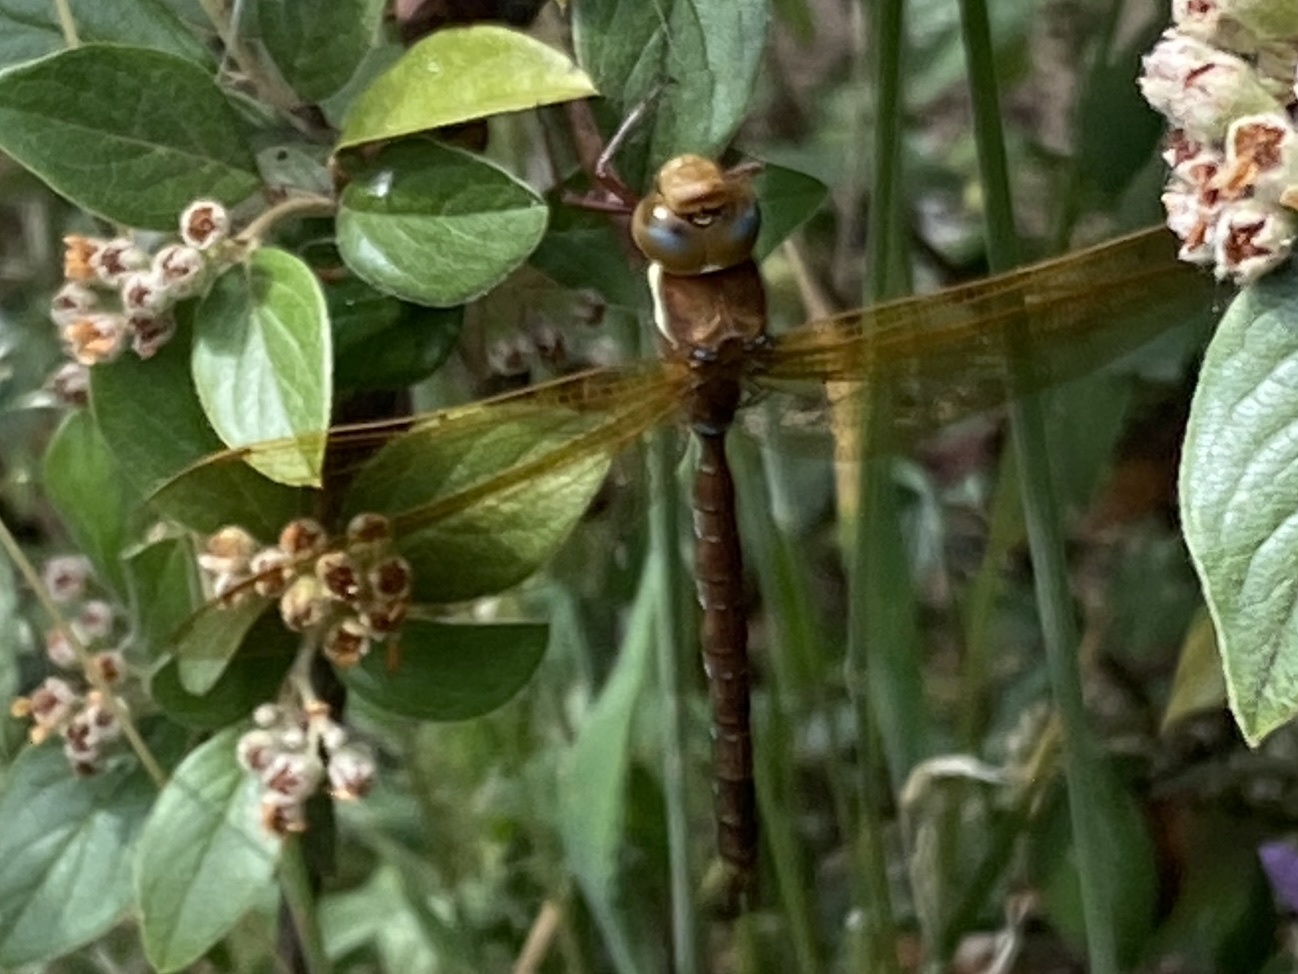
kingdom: Animalia
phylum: Arthropoda
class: Insecta
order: Odonata
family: Aeshnidae
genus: Aeshna
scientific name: Aeshna grandis
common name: Brown hawker
